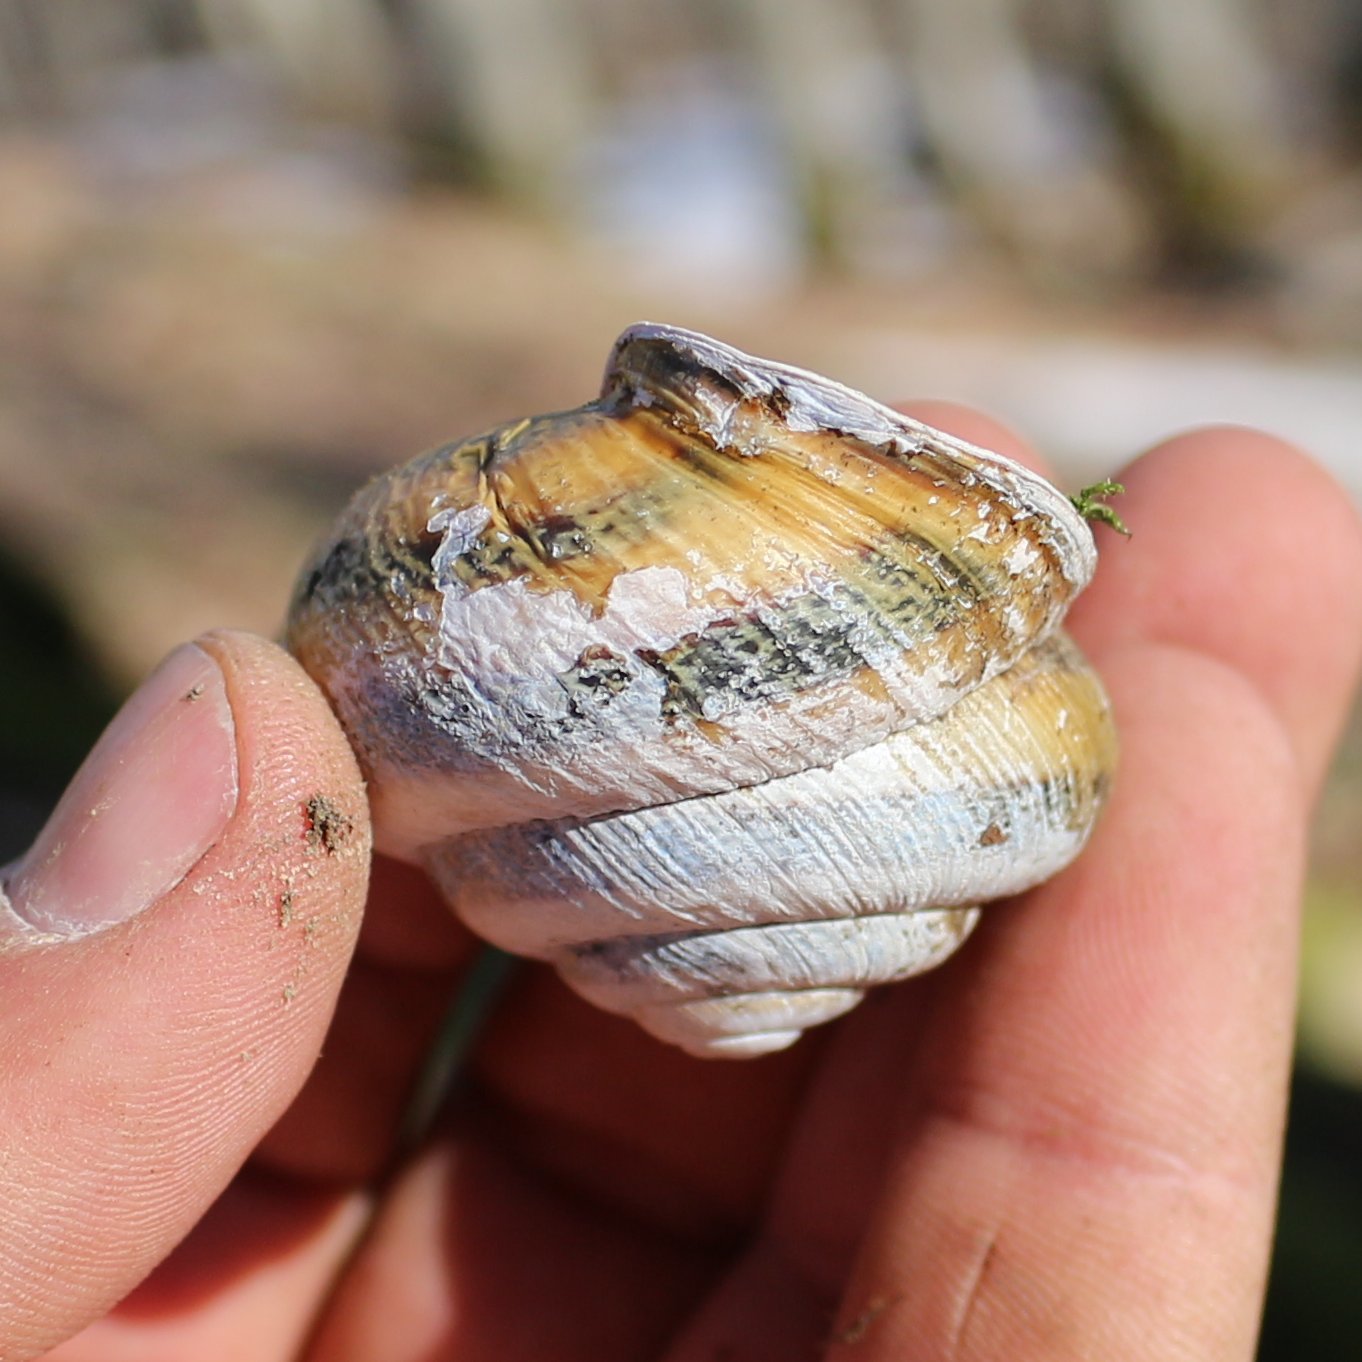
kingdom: Animalia
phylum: Mollusca
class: Gastropoda
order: Stylommatophora
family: Helicidae
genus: Caucasotachea
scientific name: Caucasotachea atrolabiata
